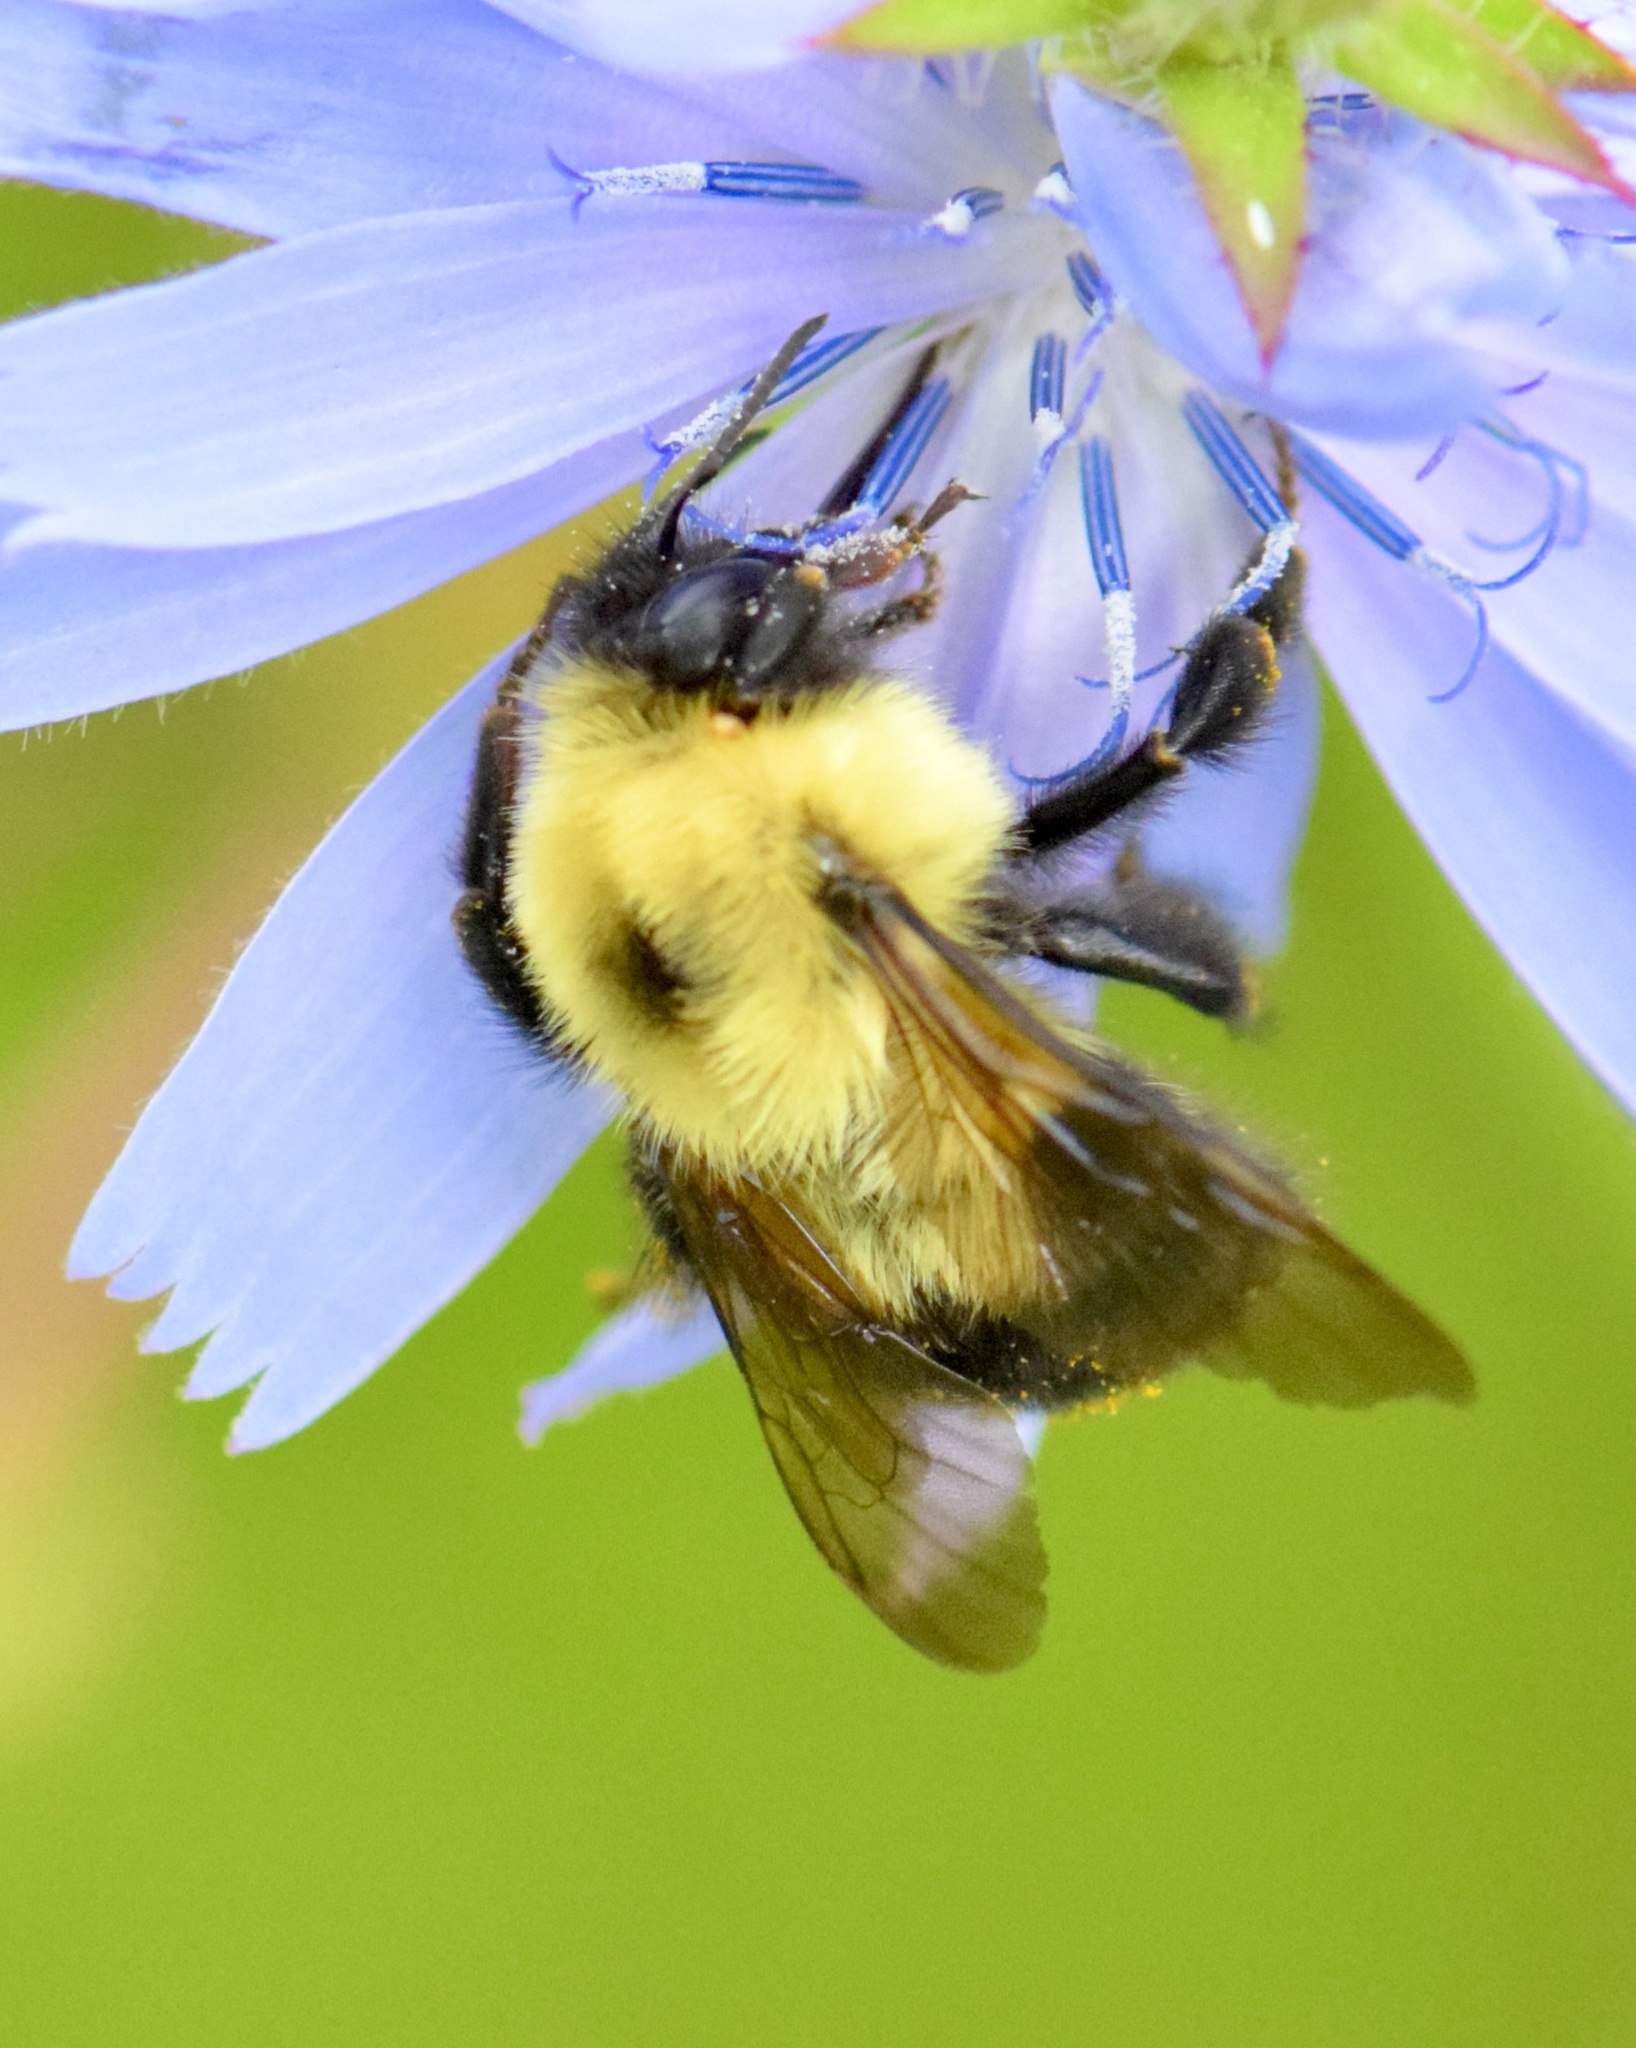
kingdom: Animalia
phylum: Arthropoda
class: Insecta
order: Hymenoptera
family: Apidae
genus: Bombus
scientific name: Bombus bimaculatus
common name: Two-spotted bumble bee
